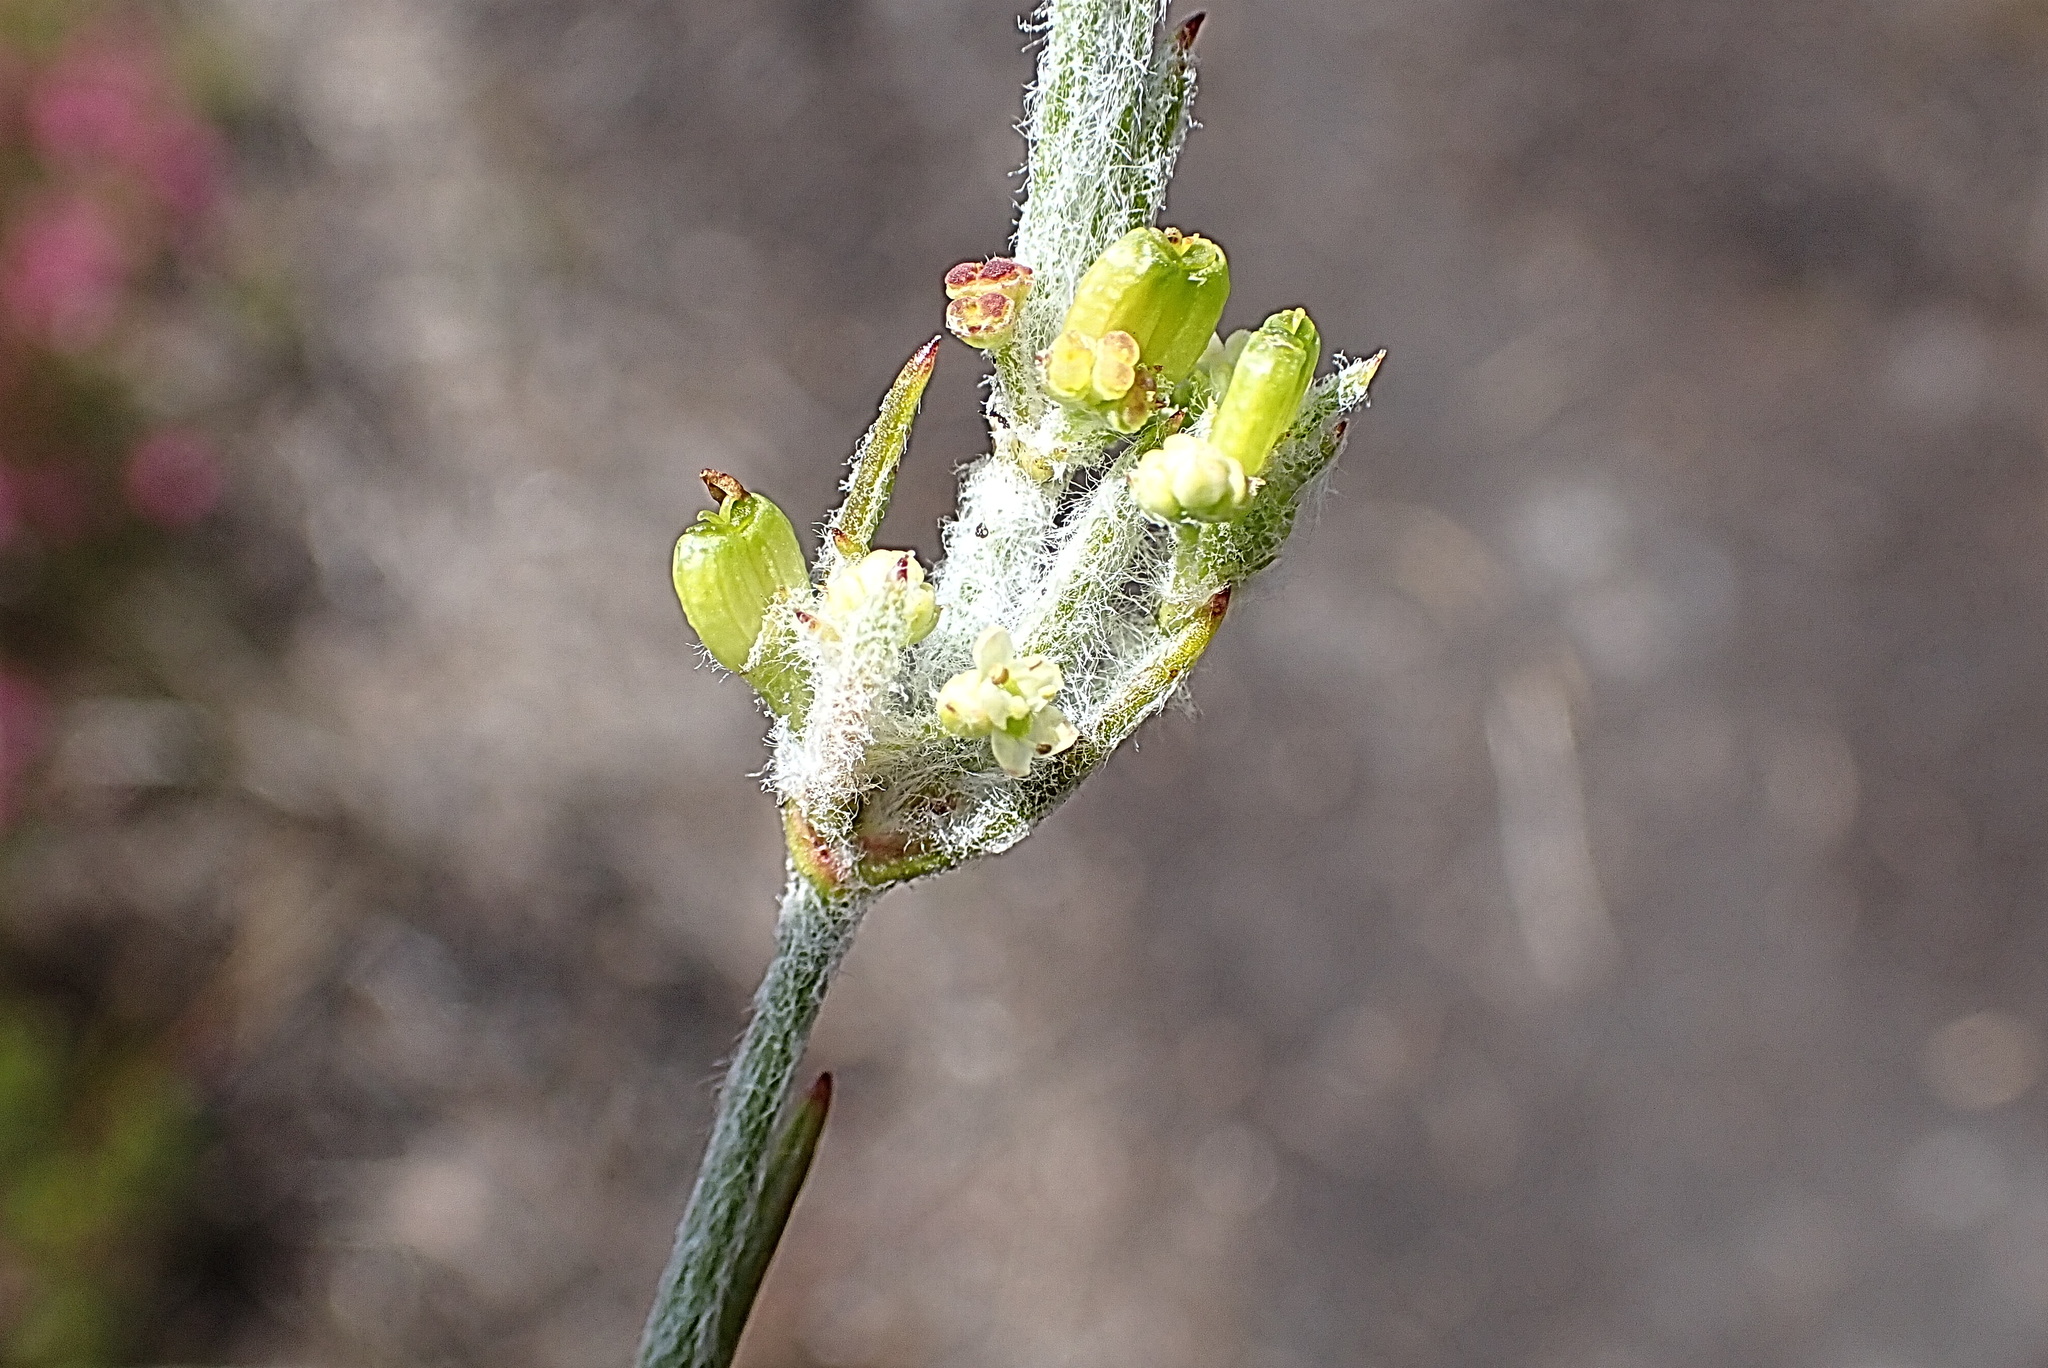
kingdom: Plantae
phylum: Tracheophyta
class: Magnoliopsida
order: Apiales
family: Apiaceae
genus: Centella
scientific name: Centella virgata
